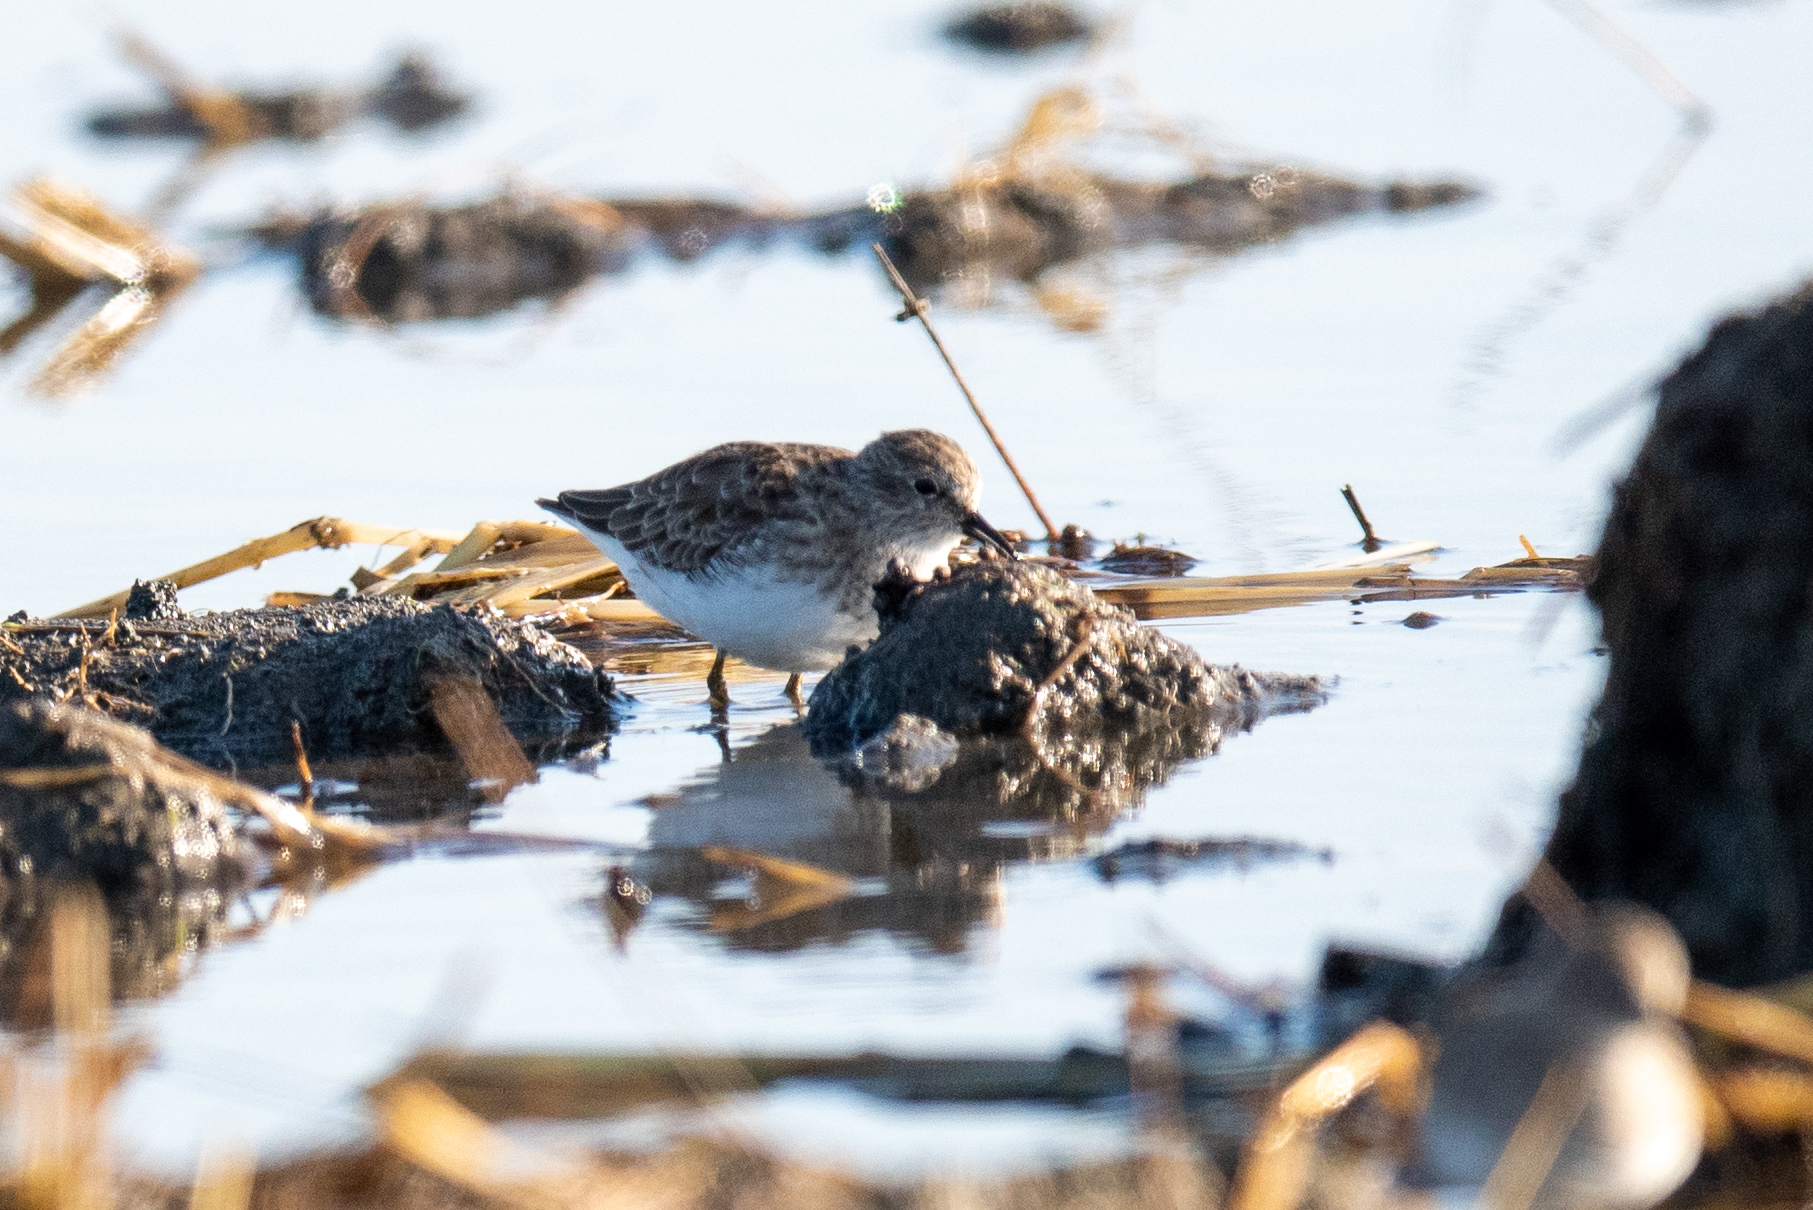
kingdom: Animalia
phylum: Chordata
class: Aves
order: Charadriiformes
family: Scolopacidae
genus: Calidris
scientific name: Calidris minutilla
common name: Least sandpiper
